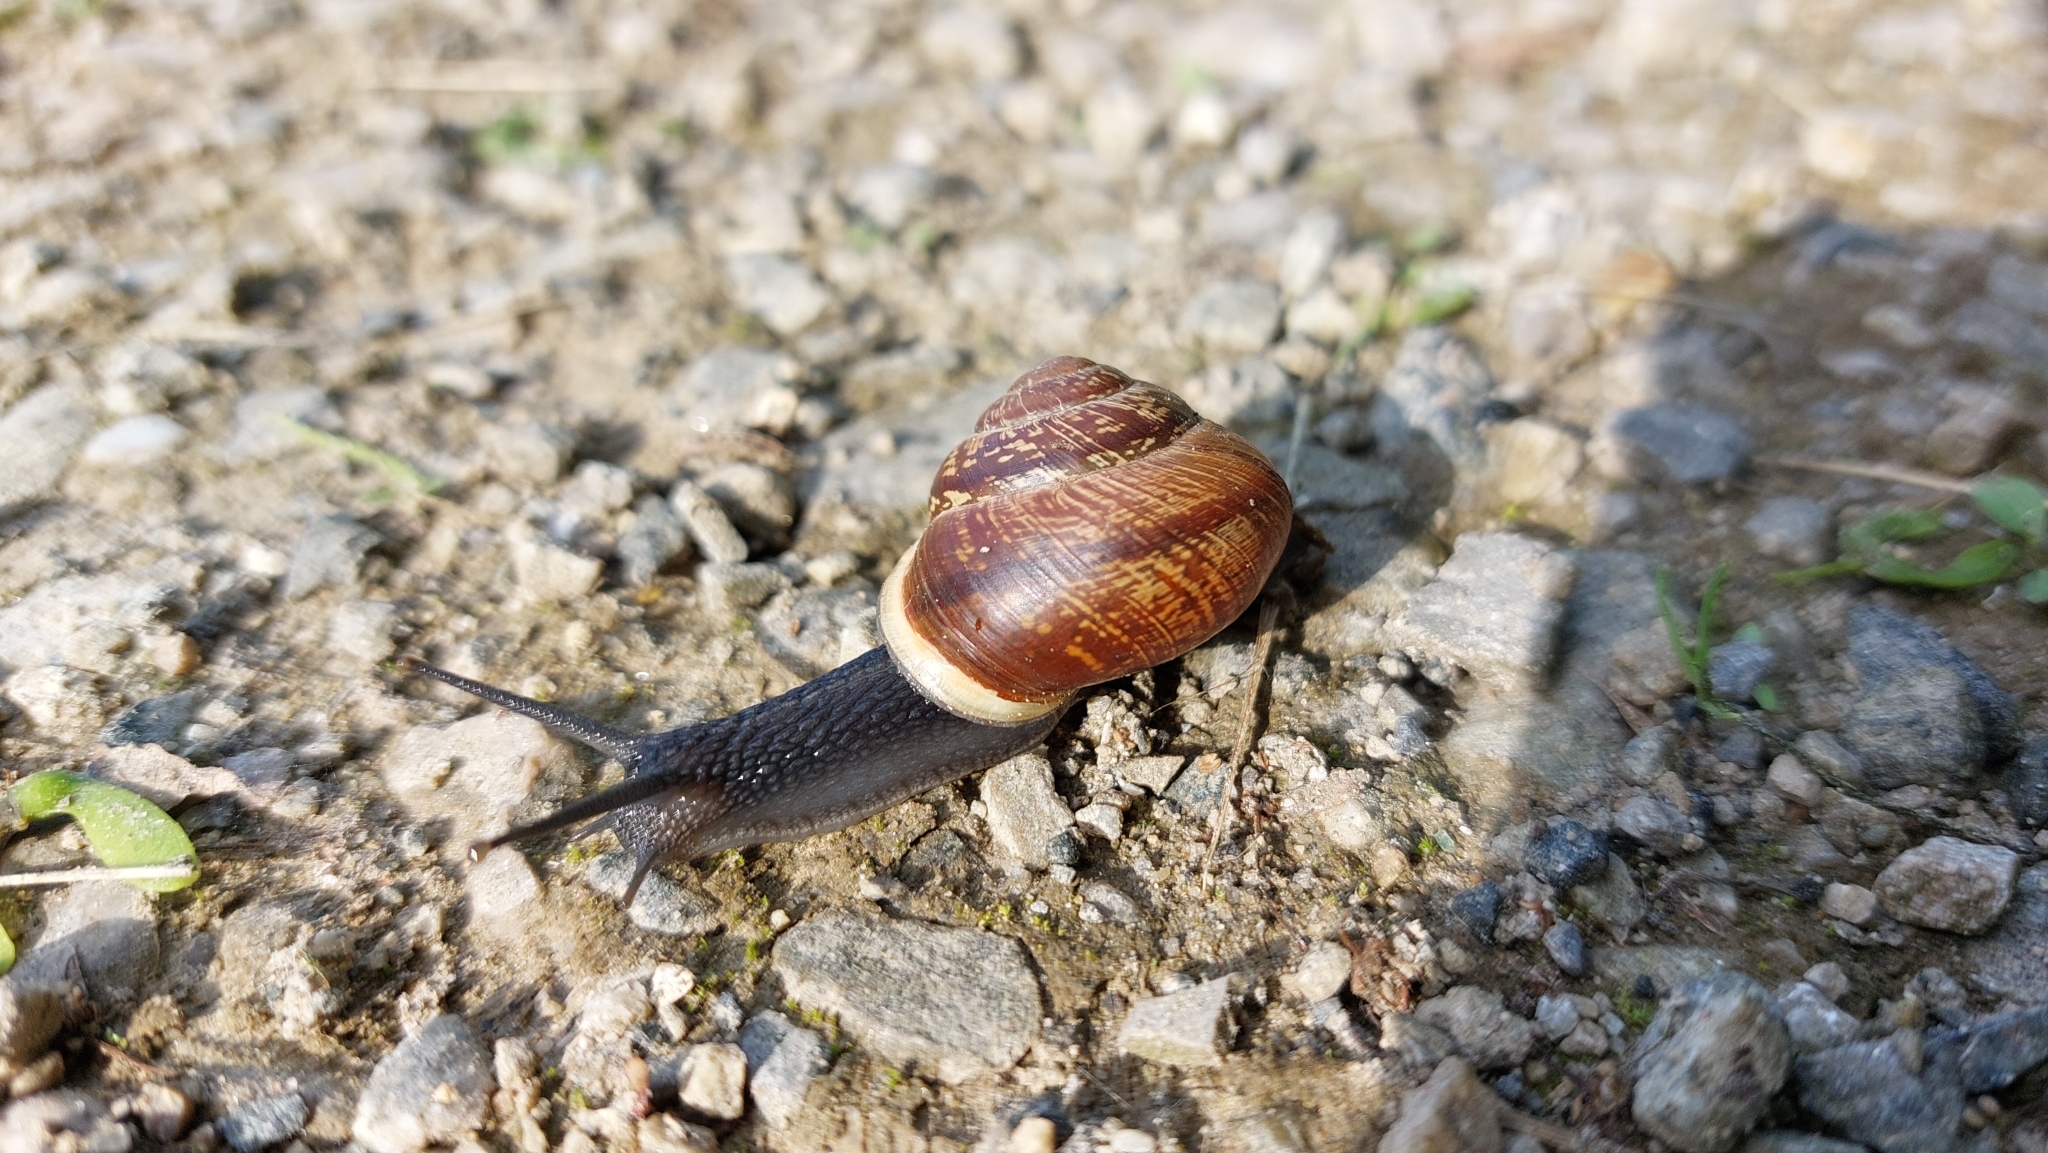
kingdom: Animalia
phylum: Mollusca
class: Gastropoda
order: Stylommatophora
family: Helicidae
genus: Arianta
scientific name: Arianta arbustorum
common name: Copse snail
